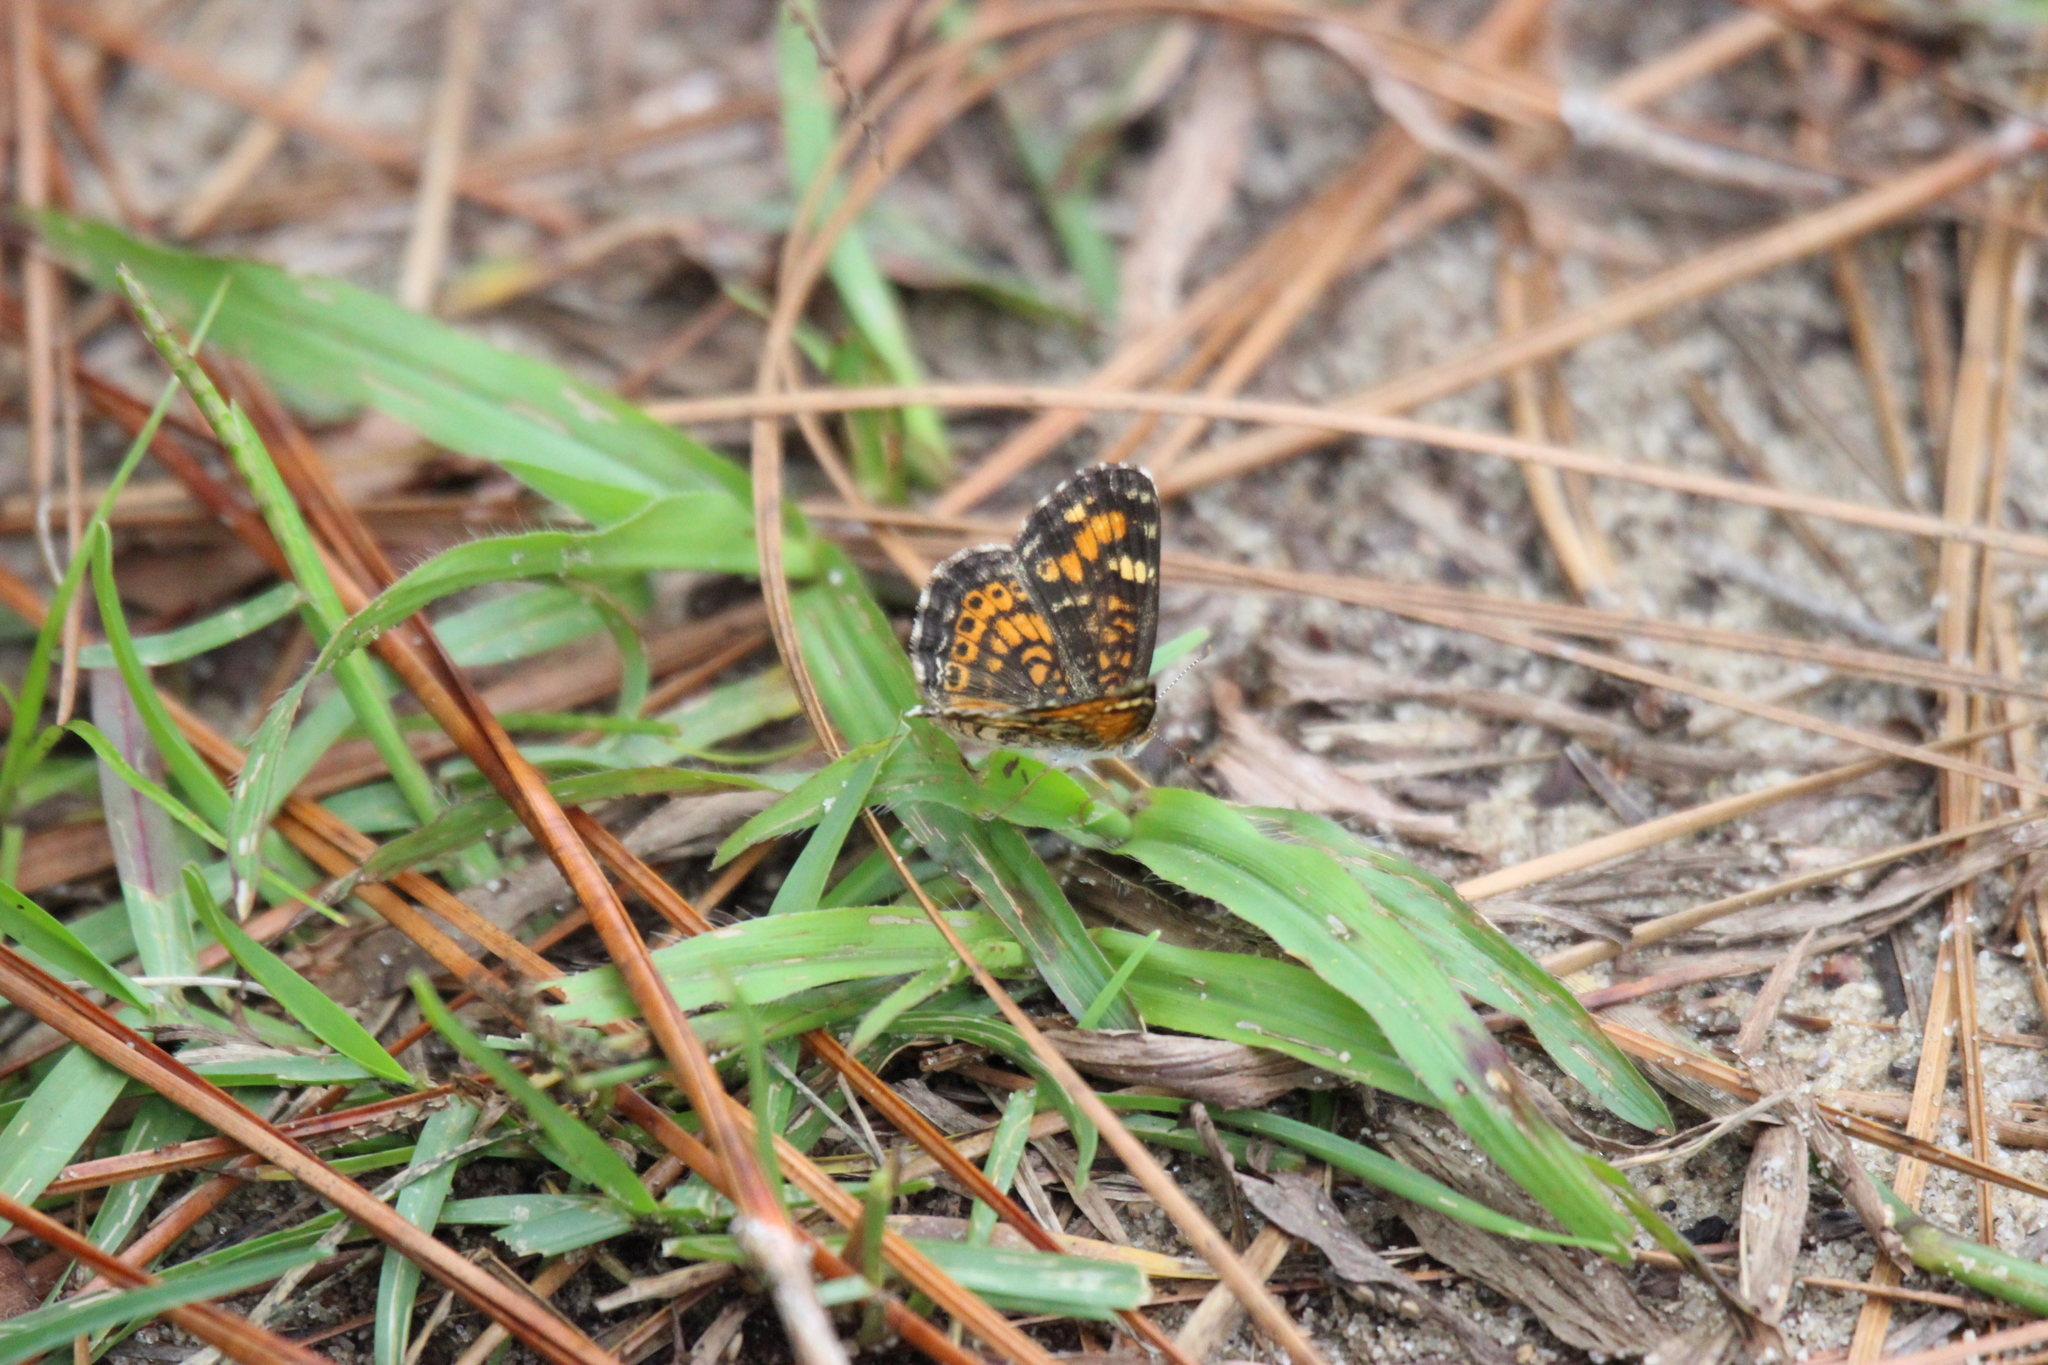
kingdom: Animalia
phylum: Arthropoda
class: Insecta
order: Lepidoptera
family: Nymphalidae
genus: Phyciodes
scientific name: Phyciodes phaon
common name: Phaon crescent
